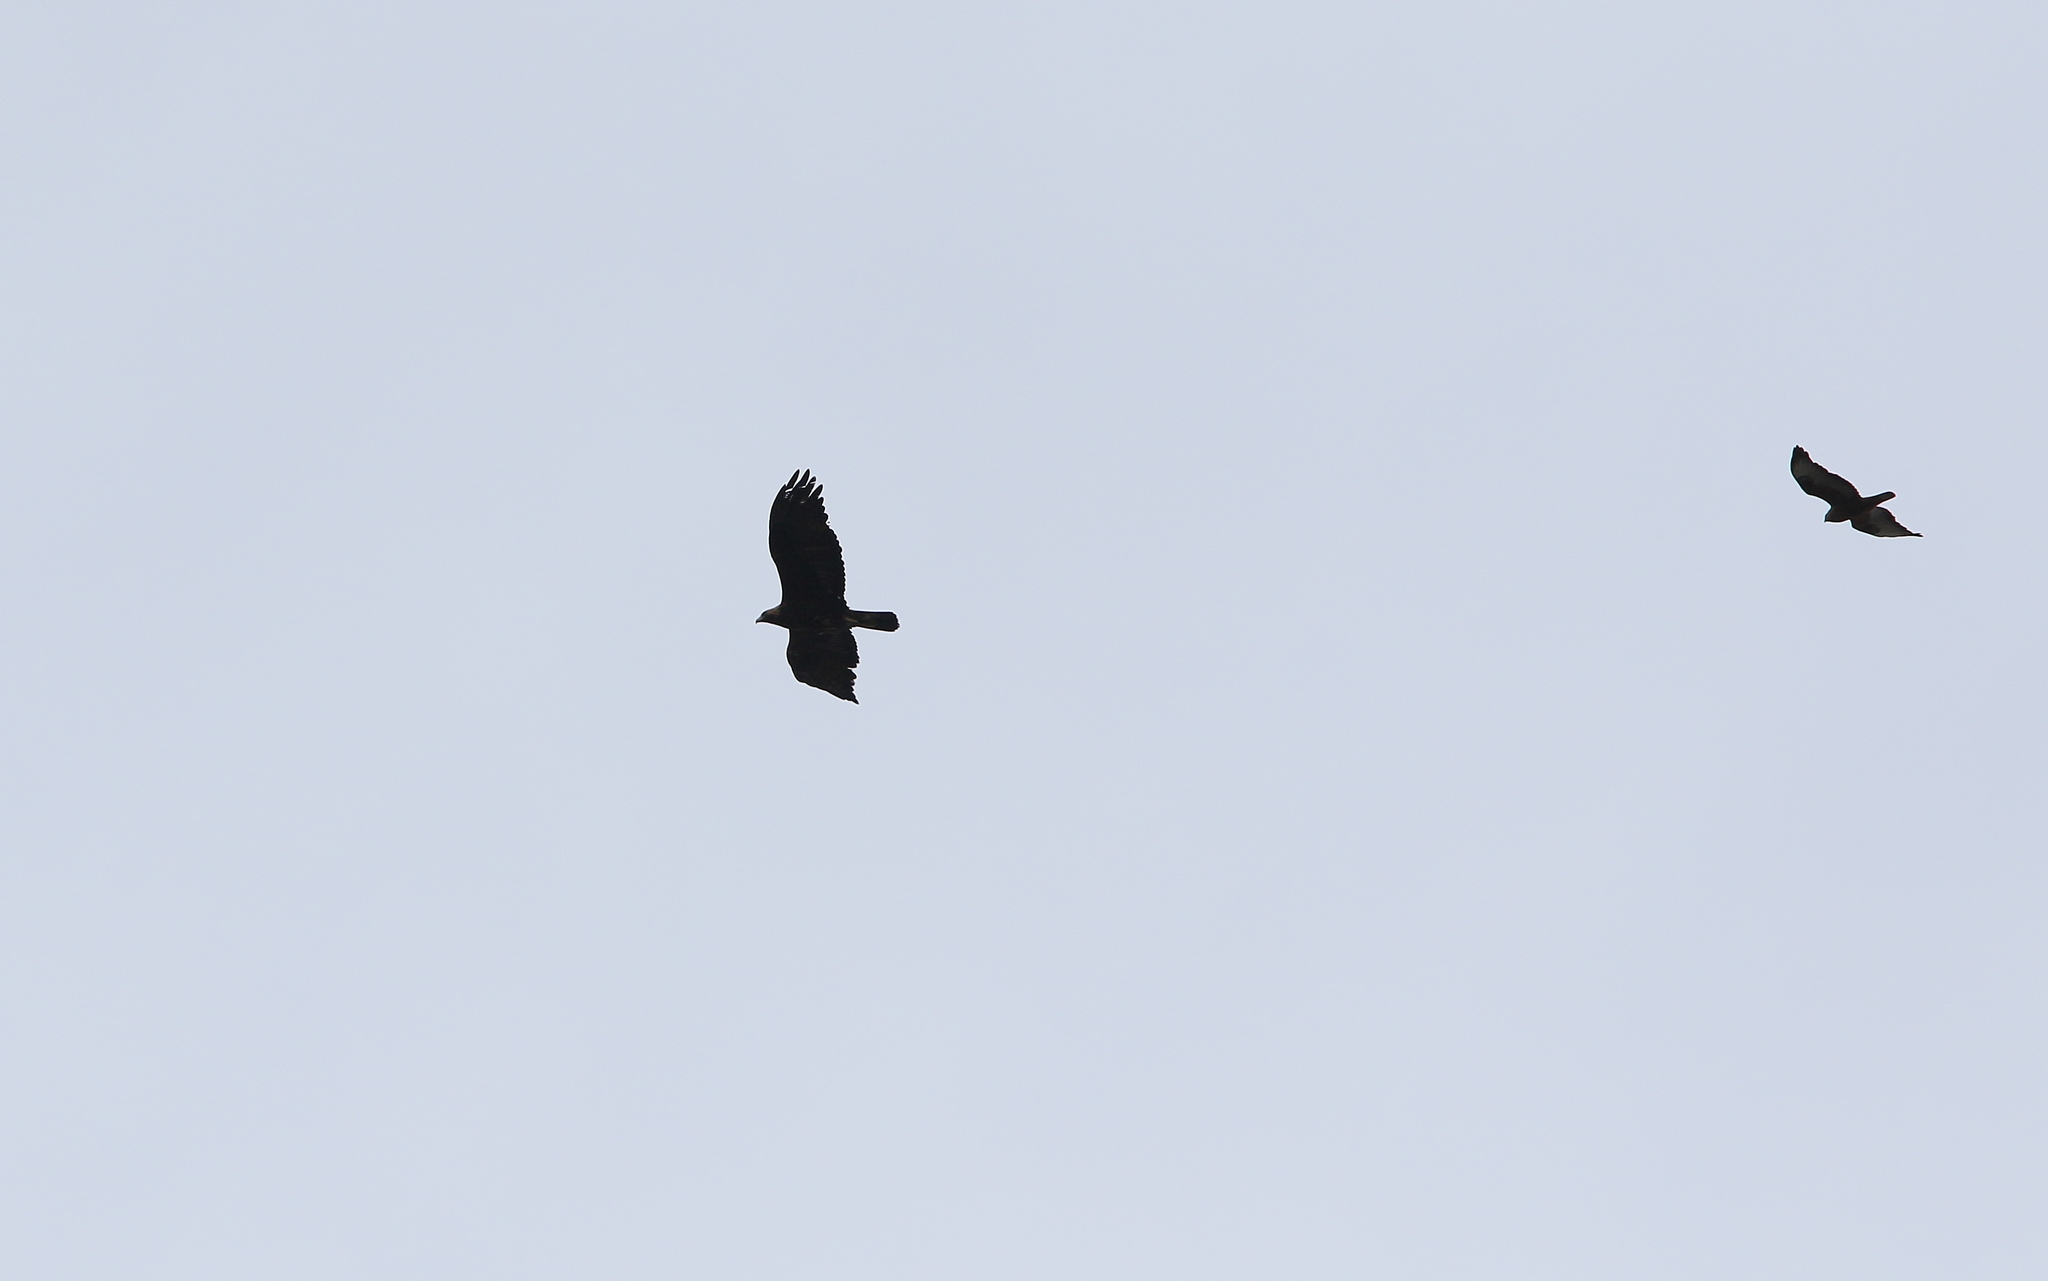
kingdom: Animalia
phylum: Chordata
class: Aves
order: Accipitriformes
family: Accipitridae
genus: Aquila
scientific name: Aquila chrysaetos
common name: Golden eagle
